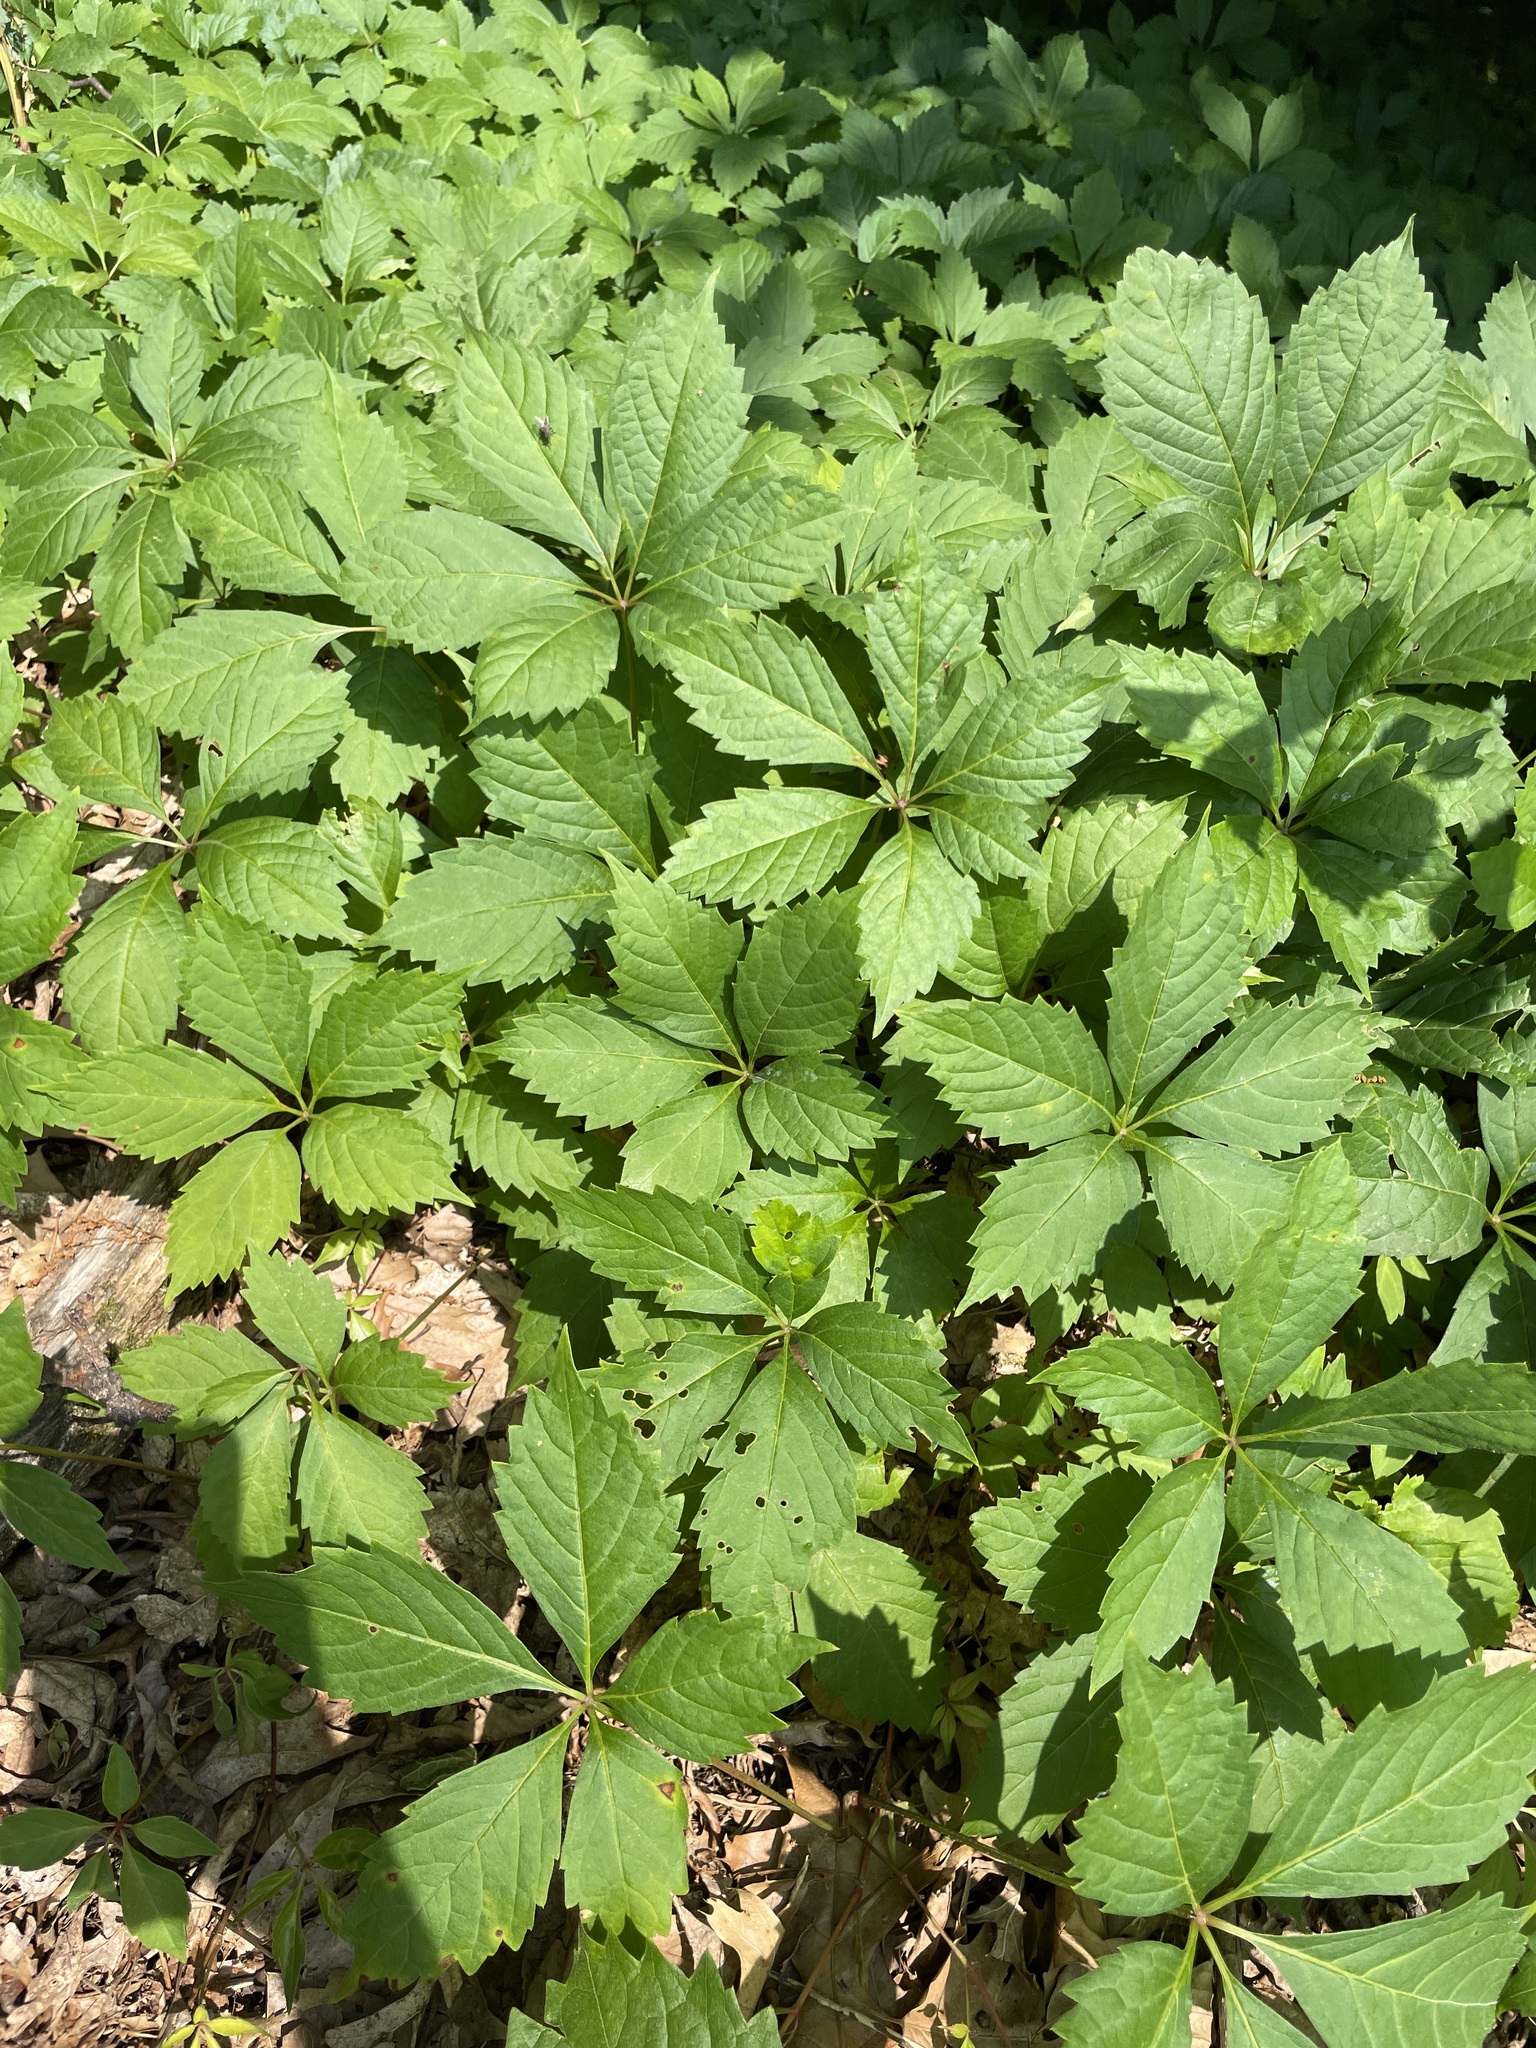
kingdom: Plantae
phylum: Tracheophyta
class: Magnoliopsida
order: Vitales
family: Vitaceae
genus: Parthenocissus
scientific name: Parthenocissus quinquefolia
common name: Virginia-creeper
